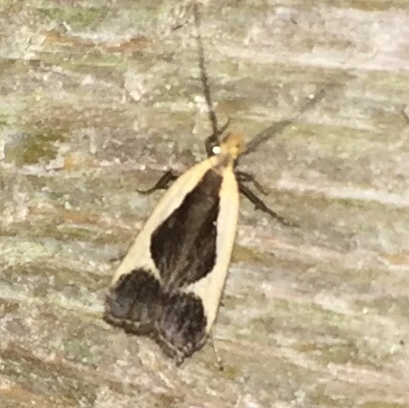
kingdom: Animalia
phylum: Arthropoda
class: Insecta
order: Lepidoptera
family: Gelechiidae
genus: Dichomeris
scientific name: Dichomeris flavocostella
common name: Cream-edged dichomeris moth
